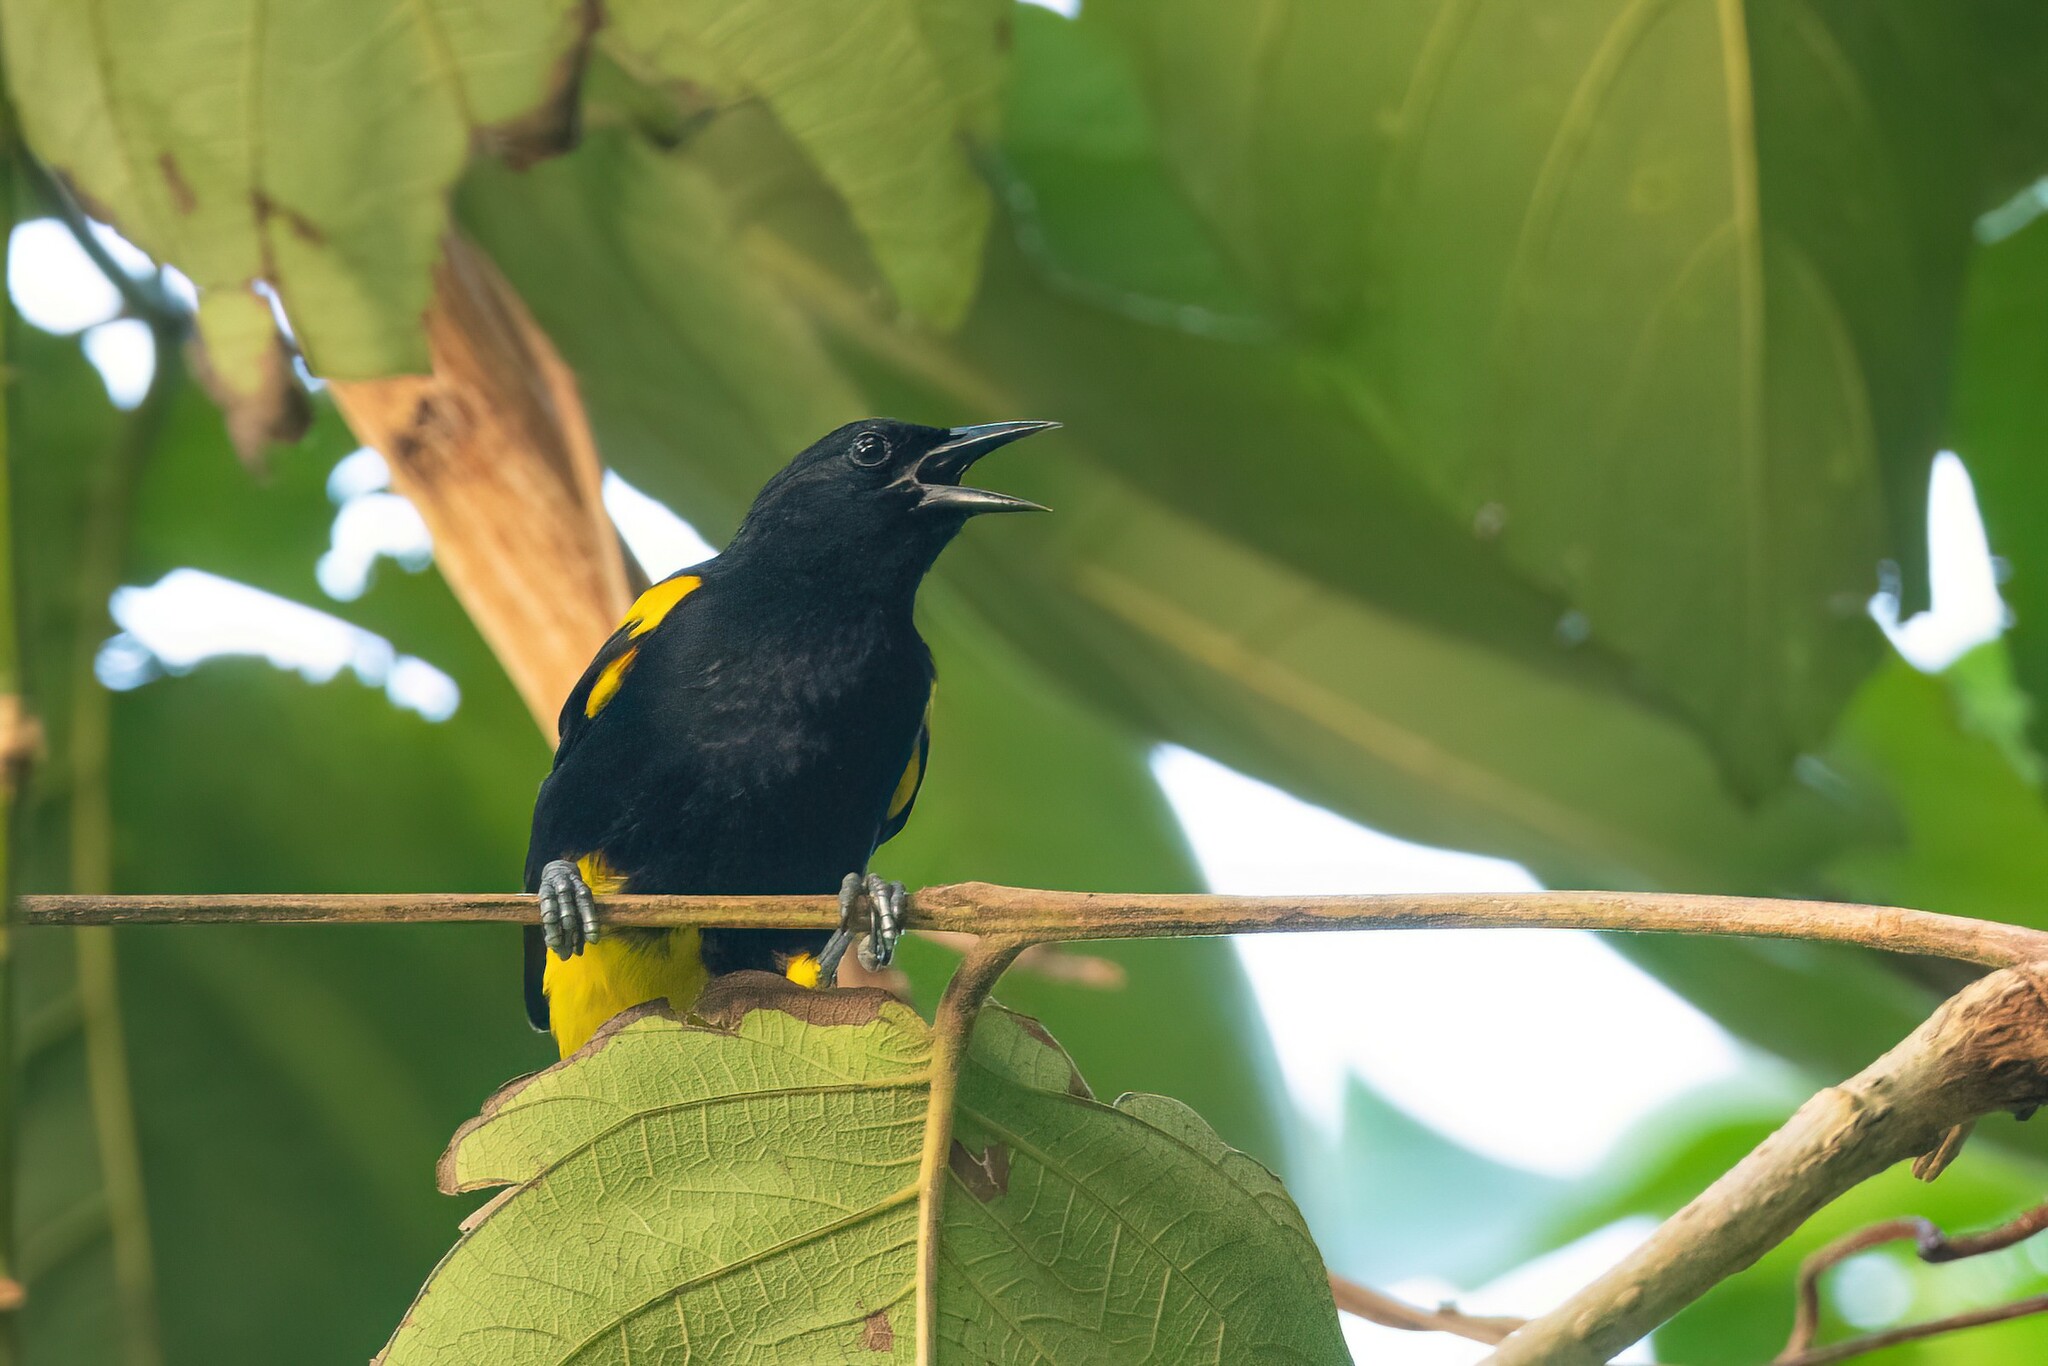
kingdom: Animalia
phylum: Chordata
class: Aves
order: Passeriformes
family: Icteridae
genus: Icterus
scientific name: Icterus portoricensis
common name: Puerto rican oriole
